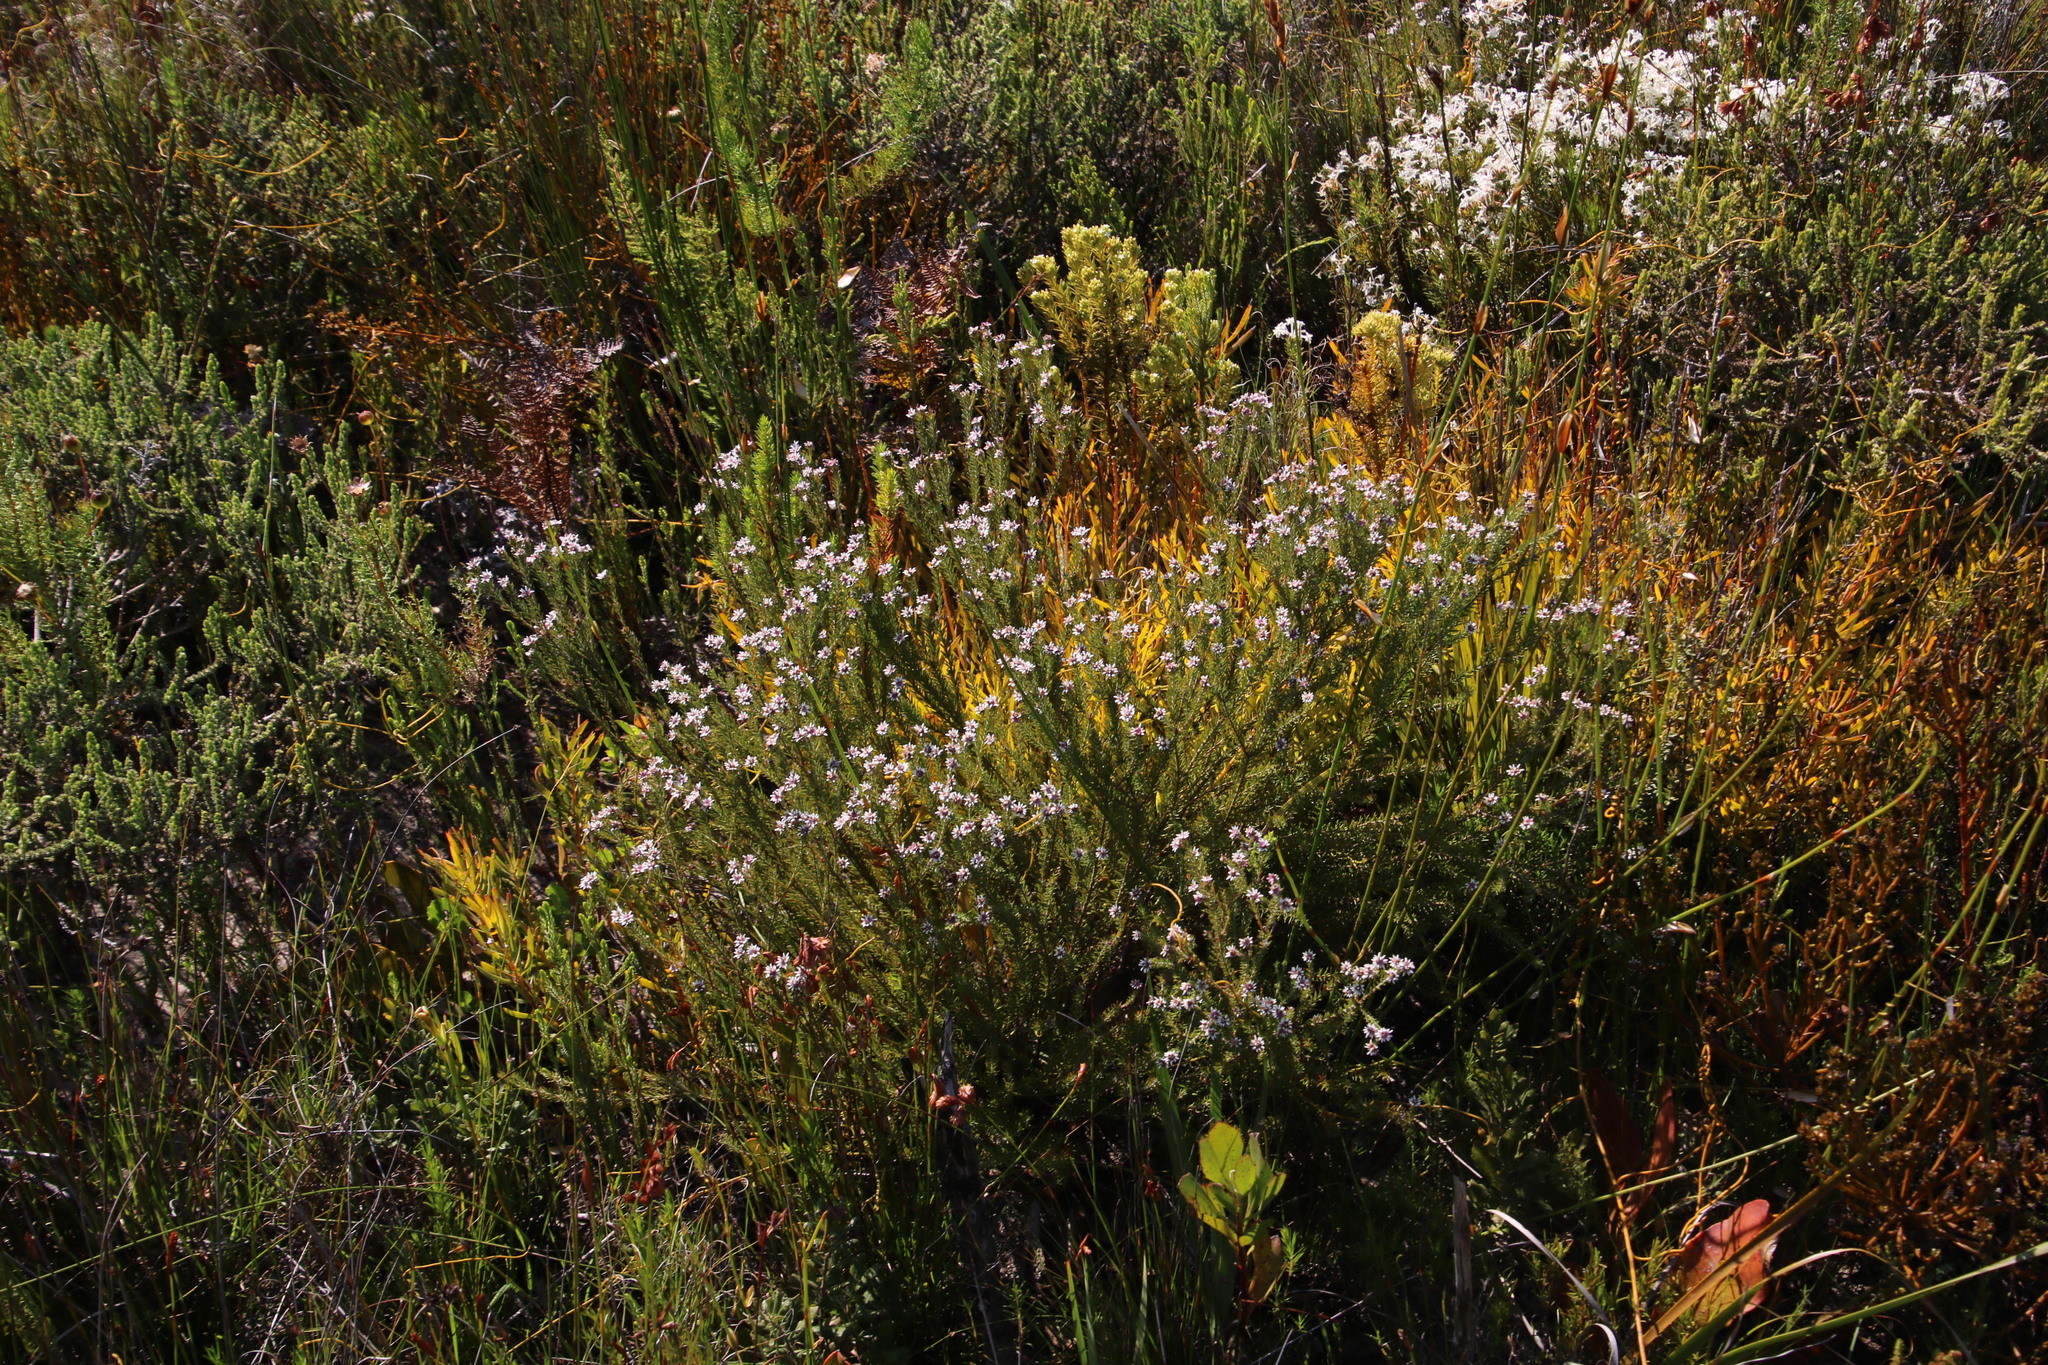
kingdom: Plantae
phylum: Tracheophyta
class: Magnoliopsida
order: Bruniales
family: Bruniaceae
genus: Staavia
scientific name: Staavia radiata
